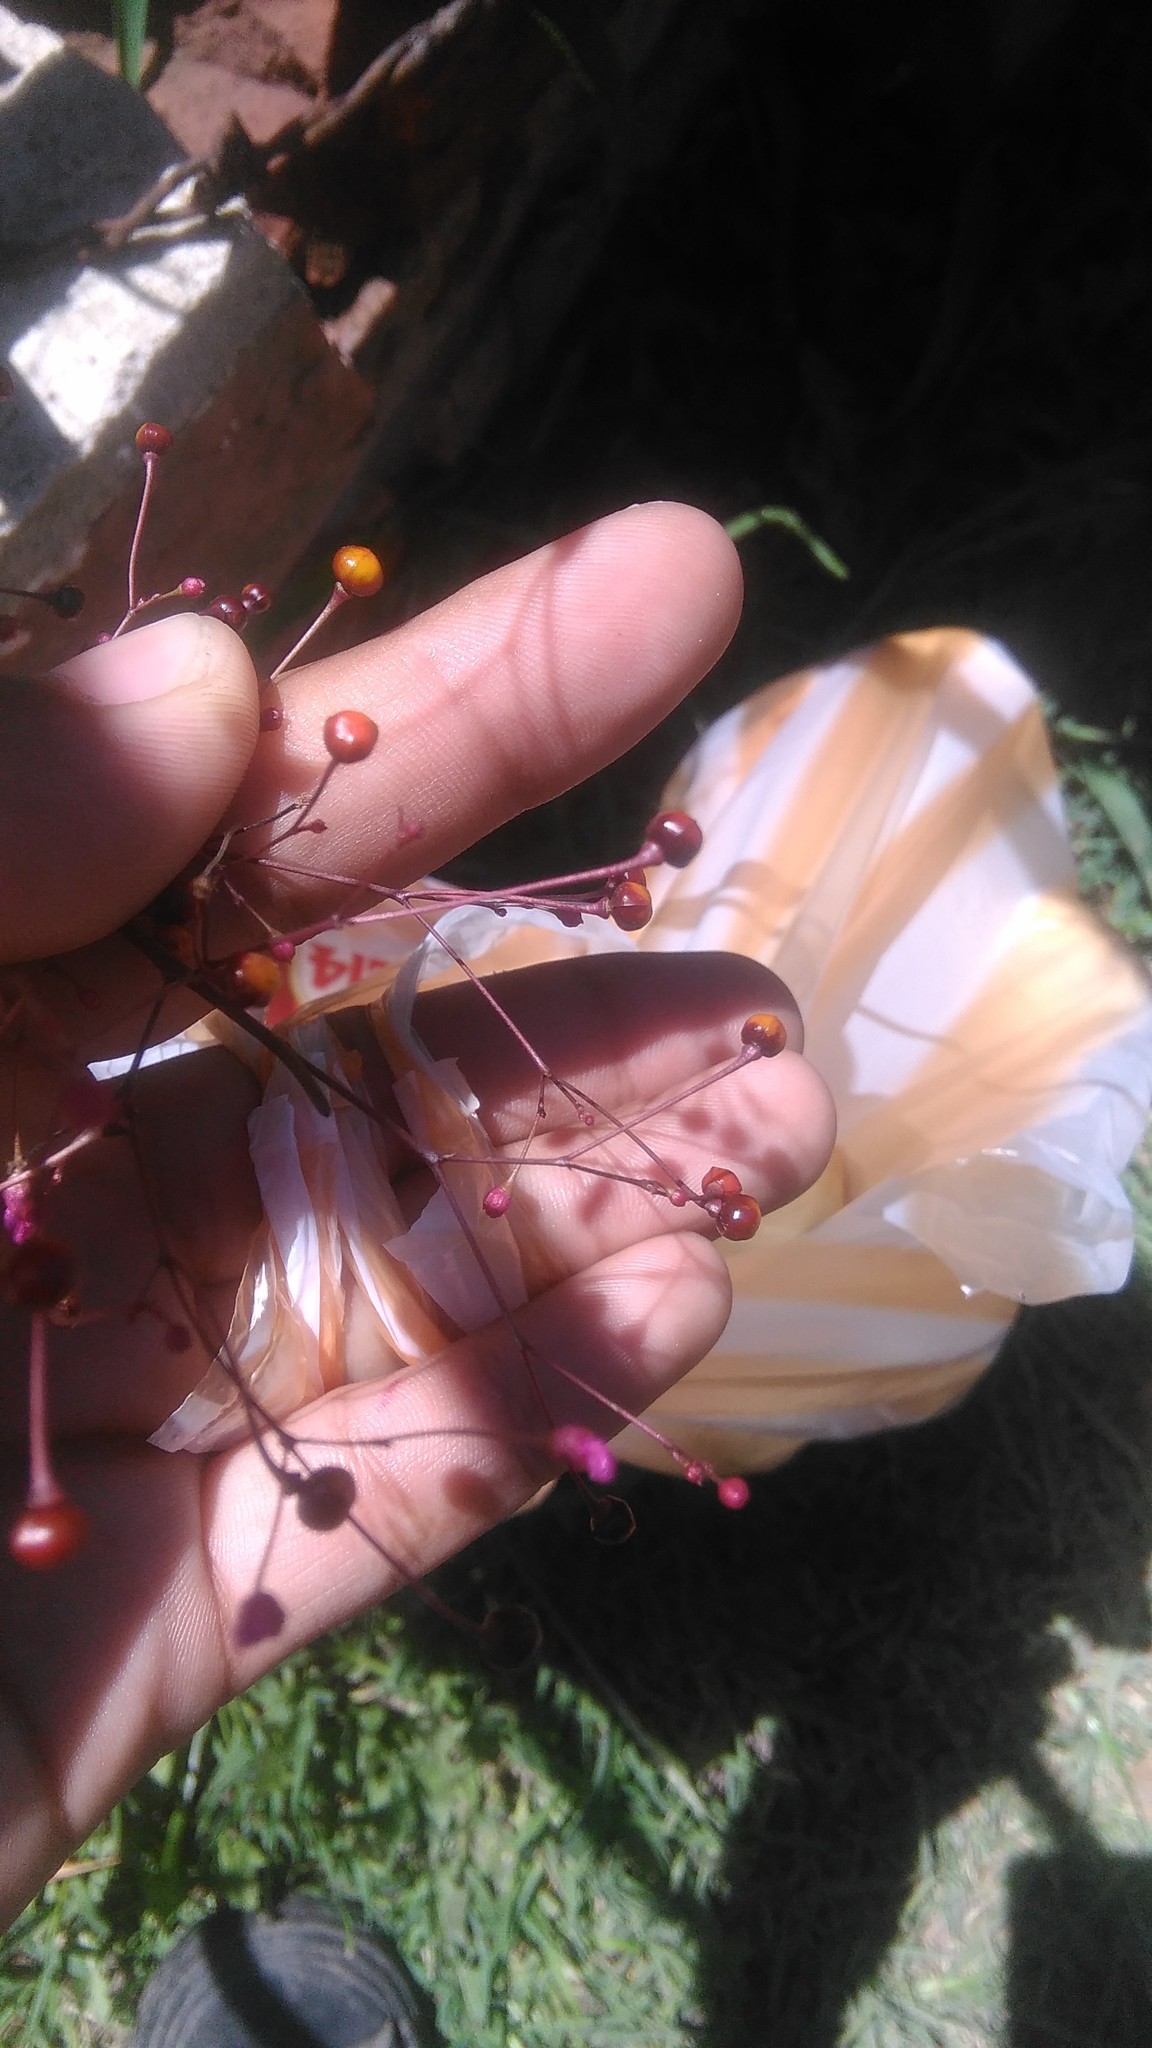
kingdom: Plantae
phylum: Tracheophyta
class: Magnoliopsida
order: Caryophyllales
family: Talinaceae
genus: Talinum
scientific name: Talinum paniculatum
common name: Jewels of opar
